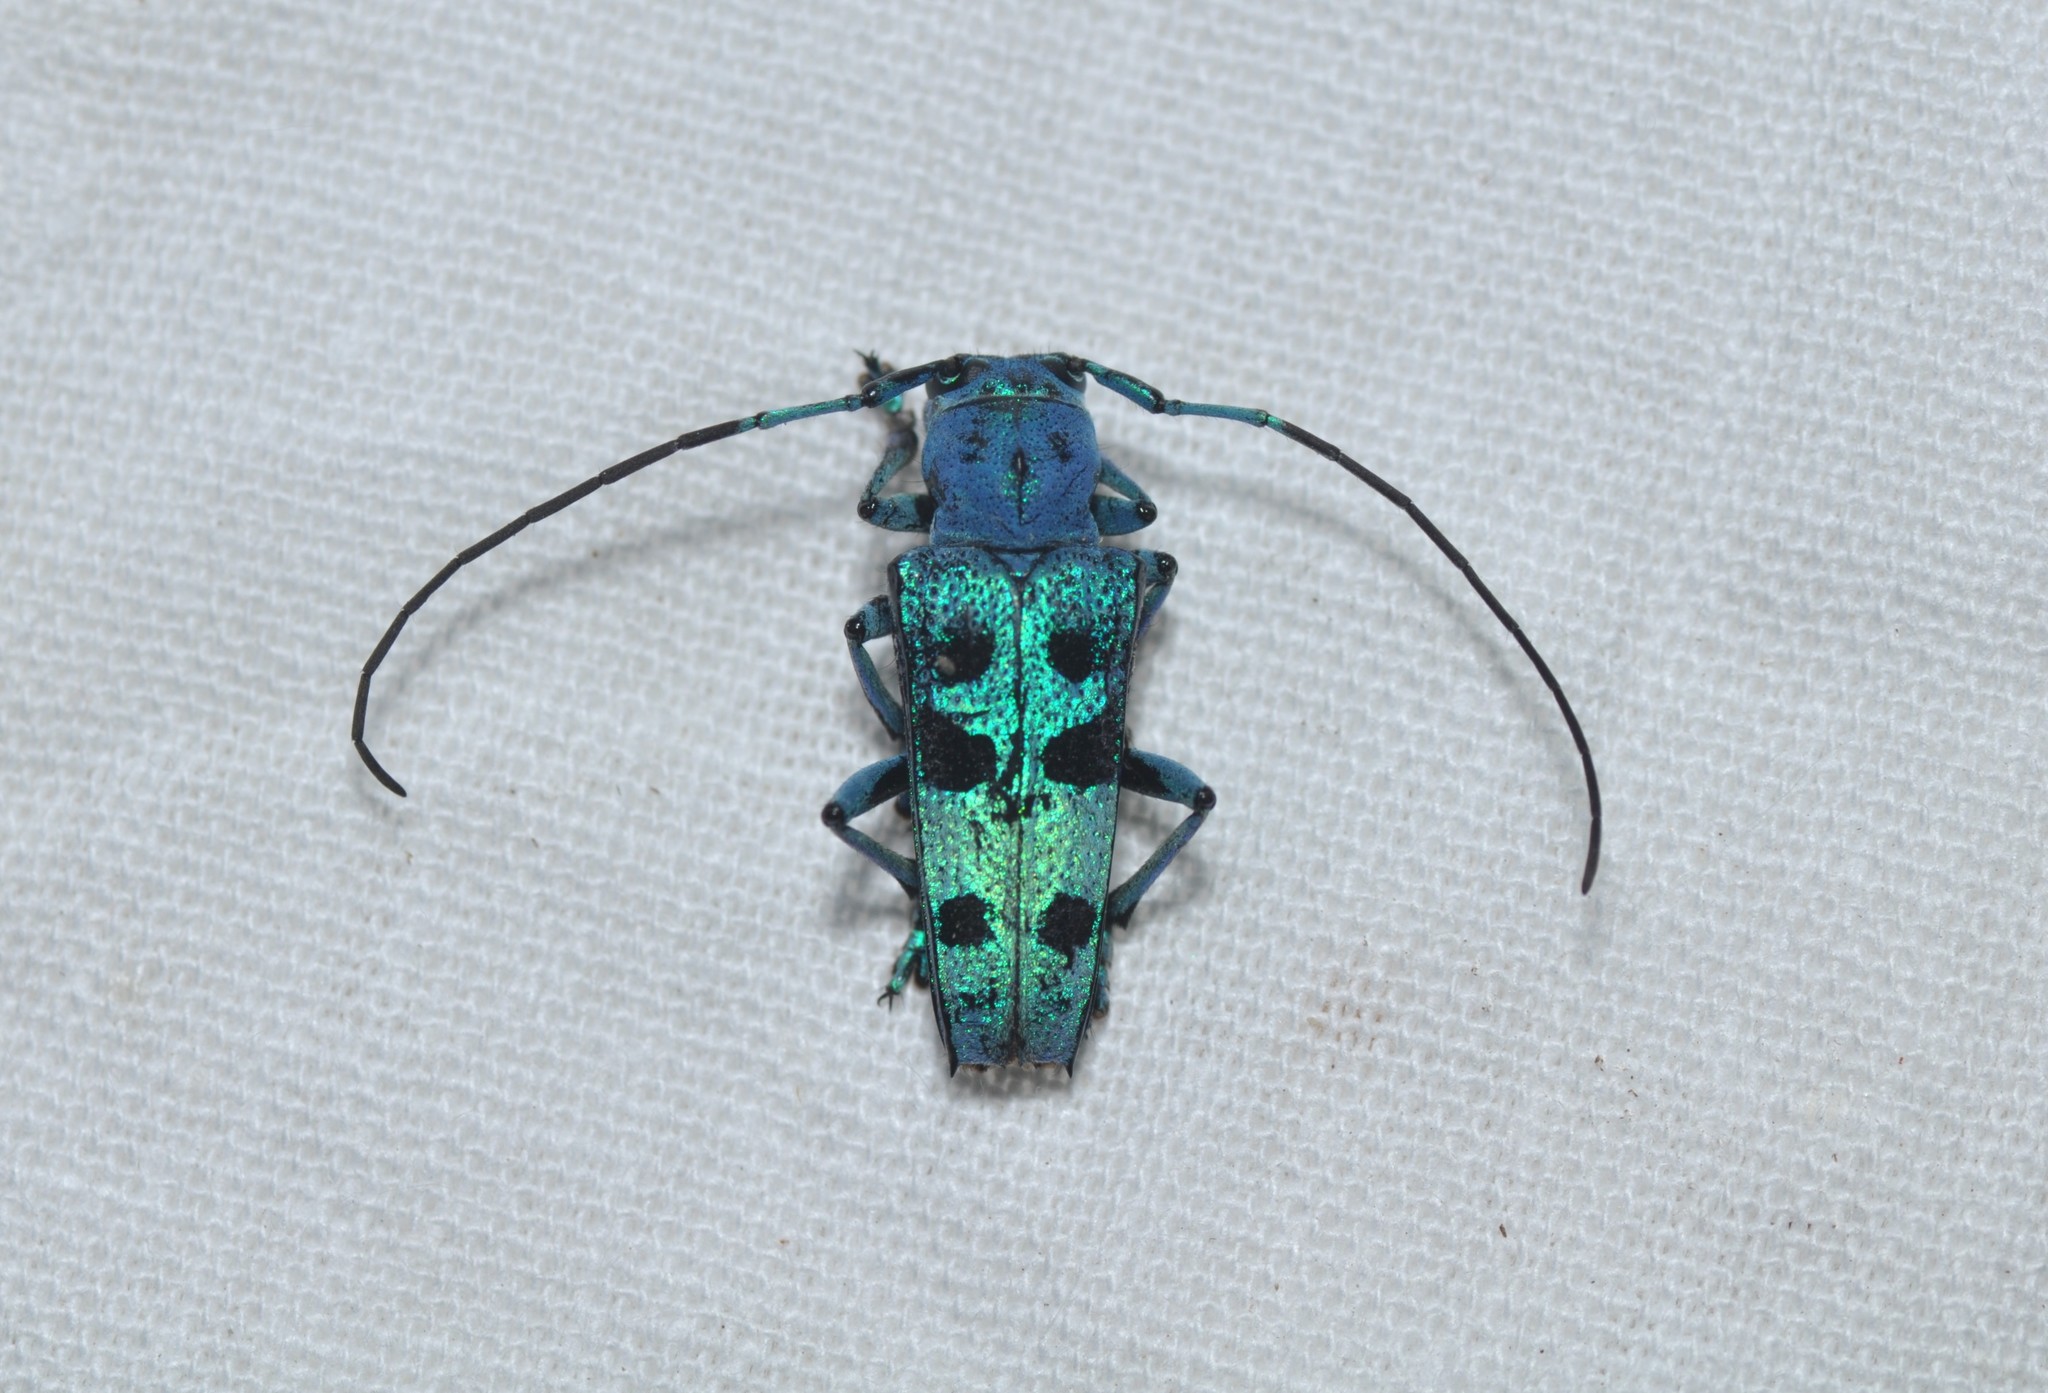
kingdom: Animalia
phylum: Arthropoda
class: Insecta
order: Coleoptera
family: Cerambycidae
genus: Glenea
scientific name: Glenea celia
